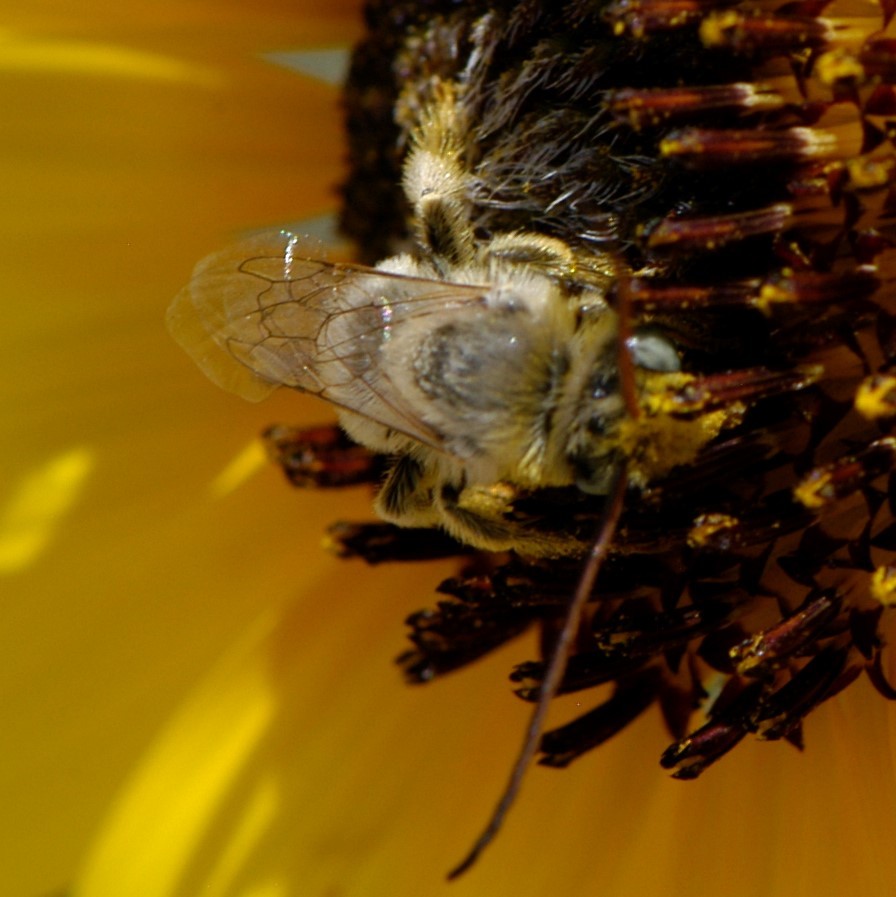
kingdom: Animalia
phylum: Arthropoda
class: Insecta
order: Hymenoptera
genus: Eumelissodes
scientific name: Eumelissodes
